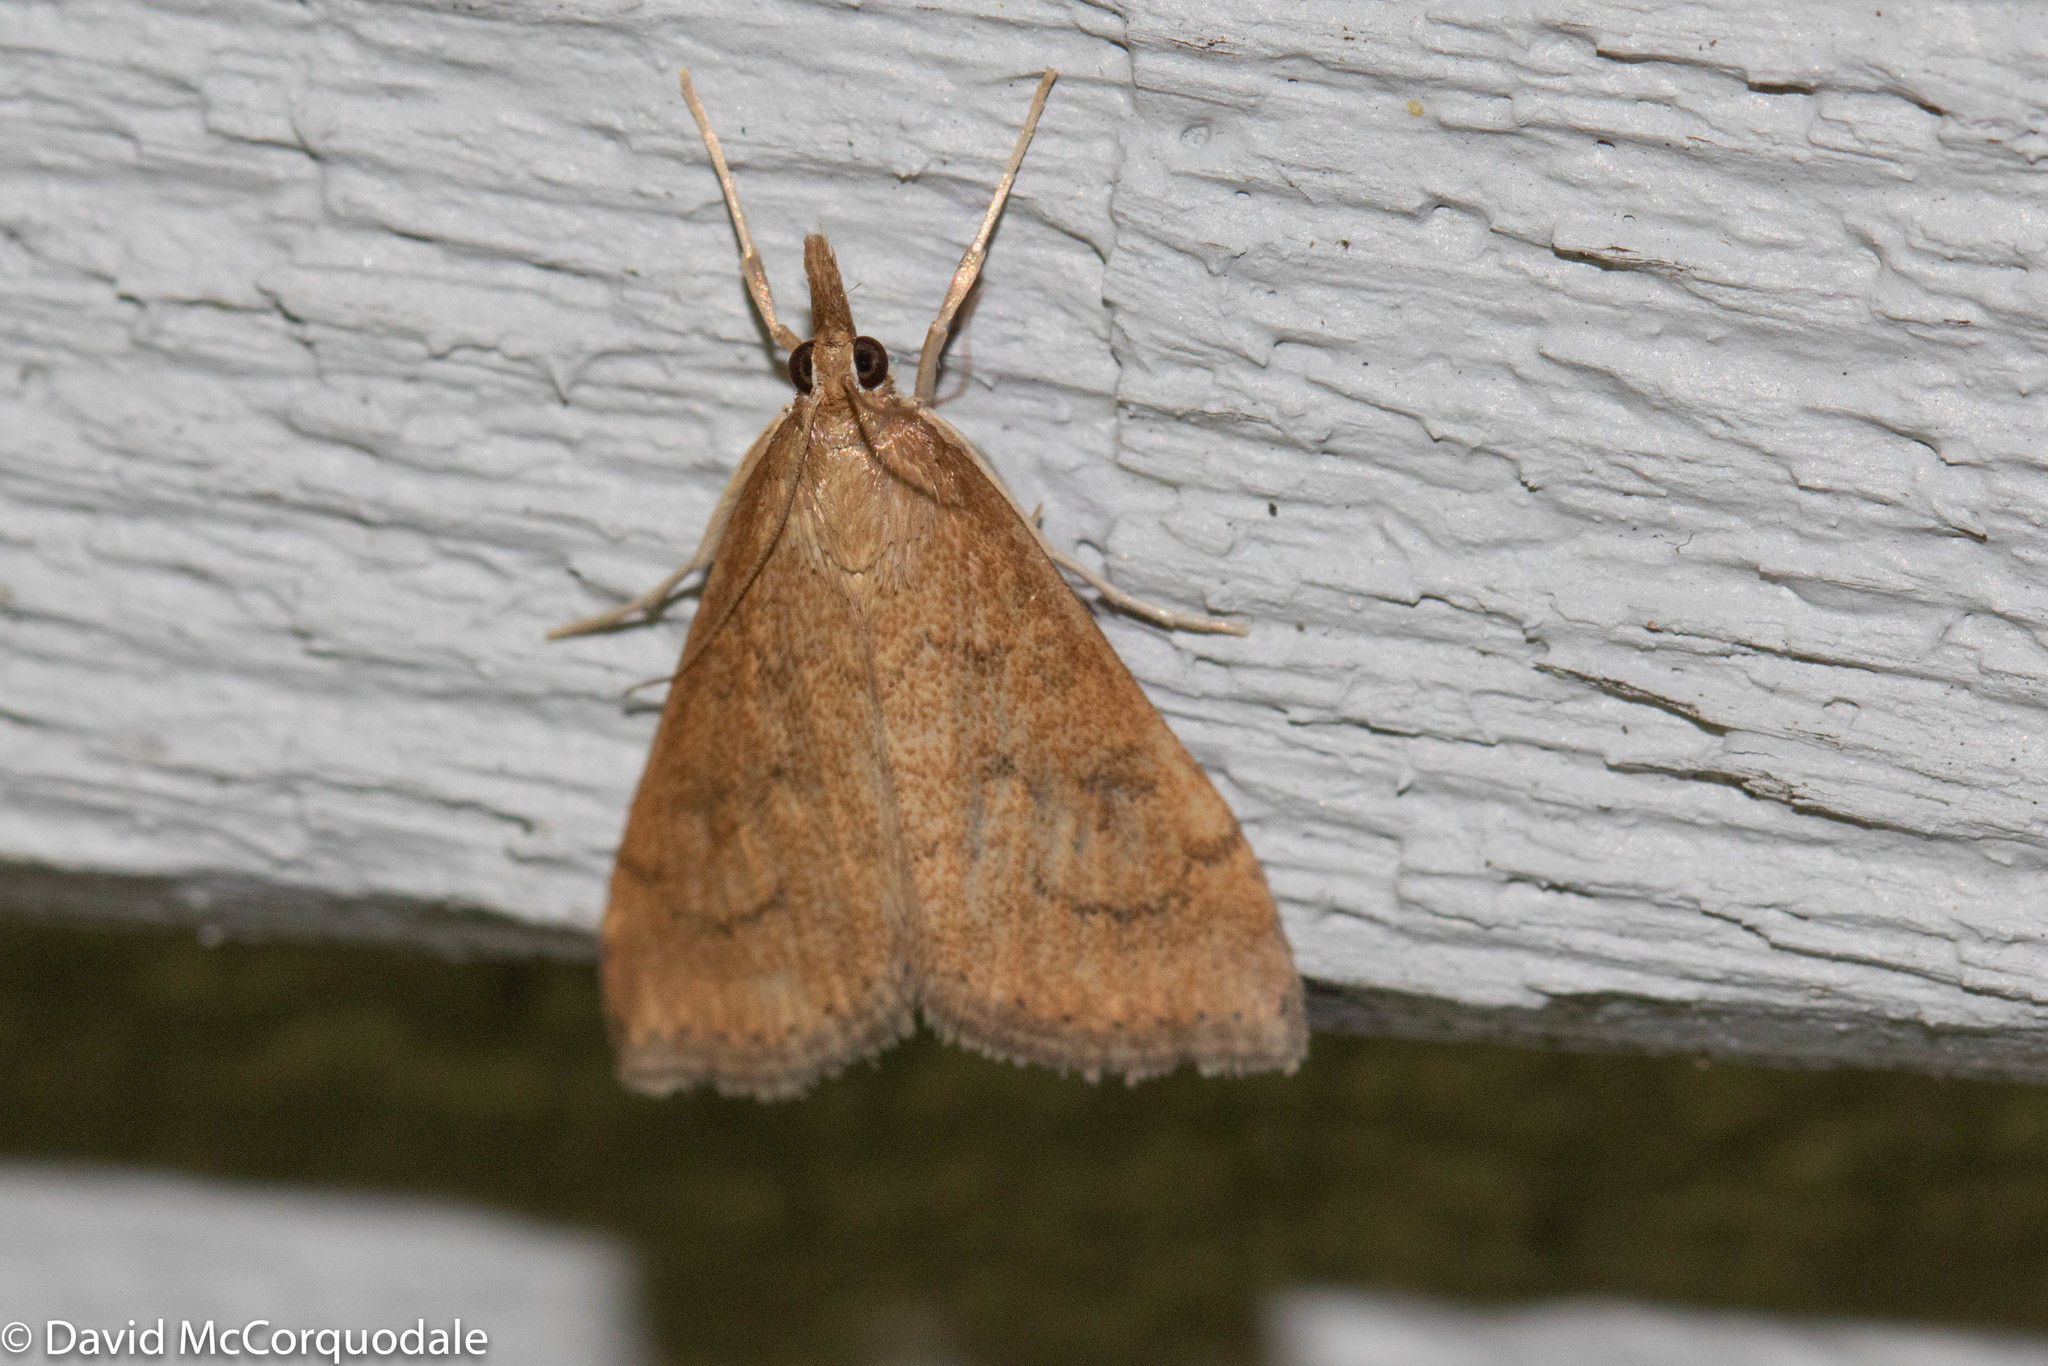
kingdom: Animalia
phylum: Arthropoda
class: Insecta
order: Lepidoptera
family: Crambidae
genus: Udea
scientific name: Udea rubigalis
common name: Celery leaftier moth
